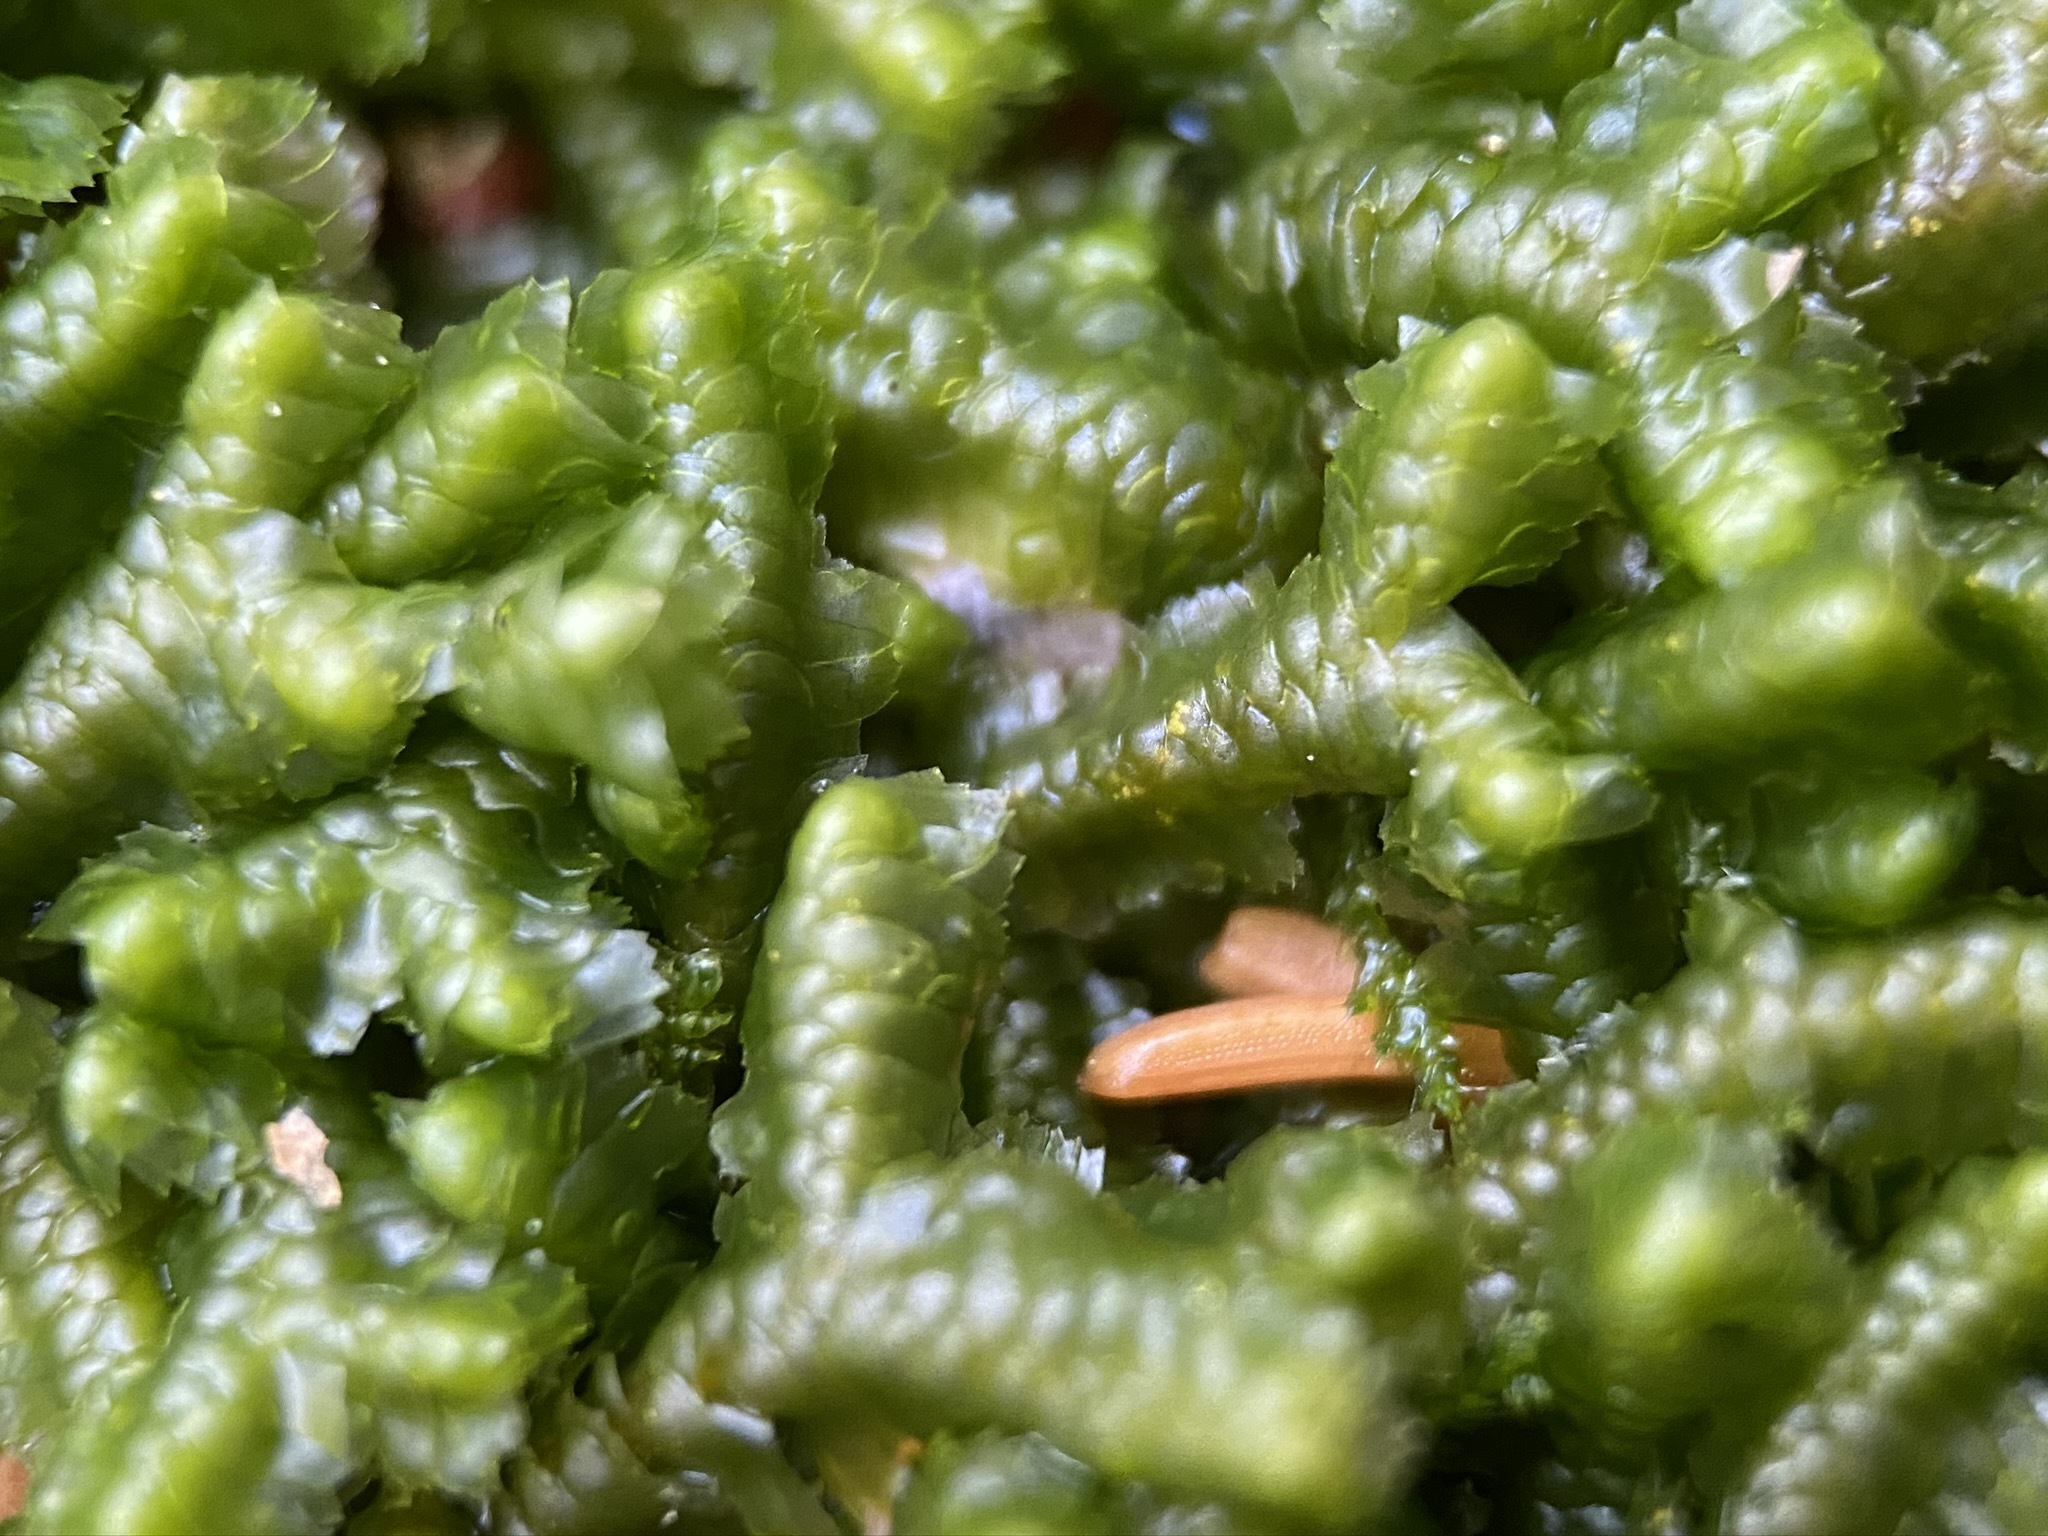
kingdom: Plantae
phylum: Marchantiophyta
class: Jungermanniopsida
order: Jungermanniales
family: Lepidoziaceae
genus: Bazzania
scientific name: Bazzania trilobata
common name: Three-lobed whipwort
